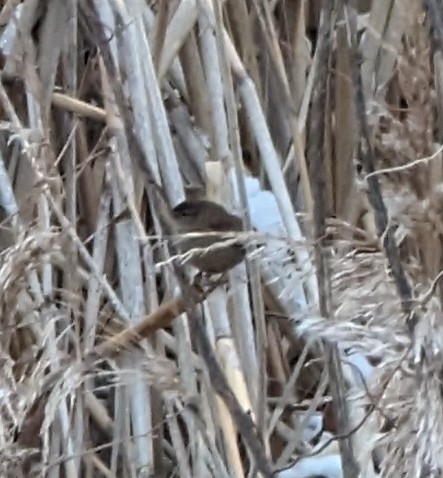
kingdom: Animalia
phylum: Chordata
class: Aves
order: Passeriformes
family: Troglodytidae
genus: Troglodytes
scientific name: Troglodytes troglodytes
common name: Eurasian wren
